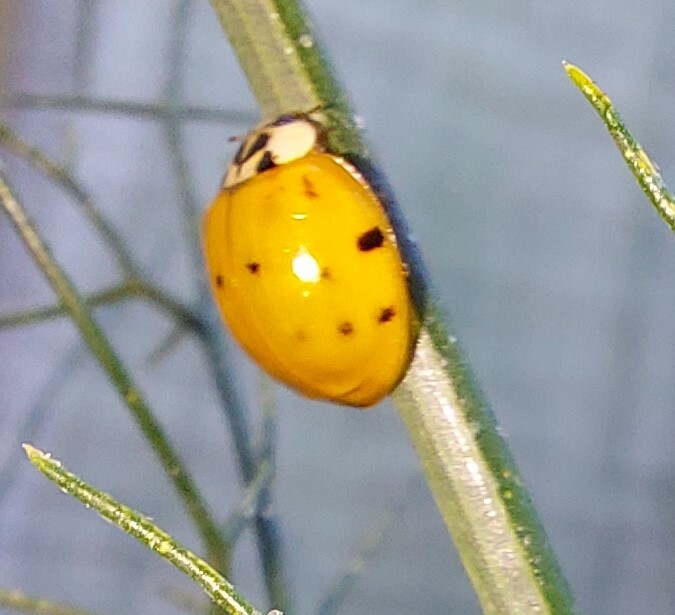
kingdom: Animalia
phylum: Arthropoda
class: Insecta
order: Coleoptera
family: Coccinellidae
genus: Harmonia
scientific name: Harmonia axyridis
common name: Harlequin ladybird
